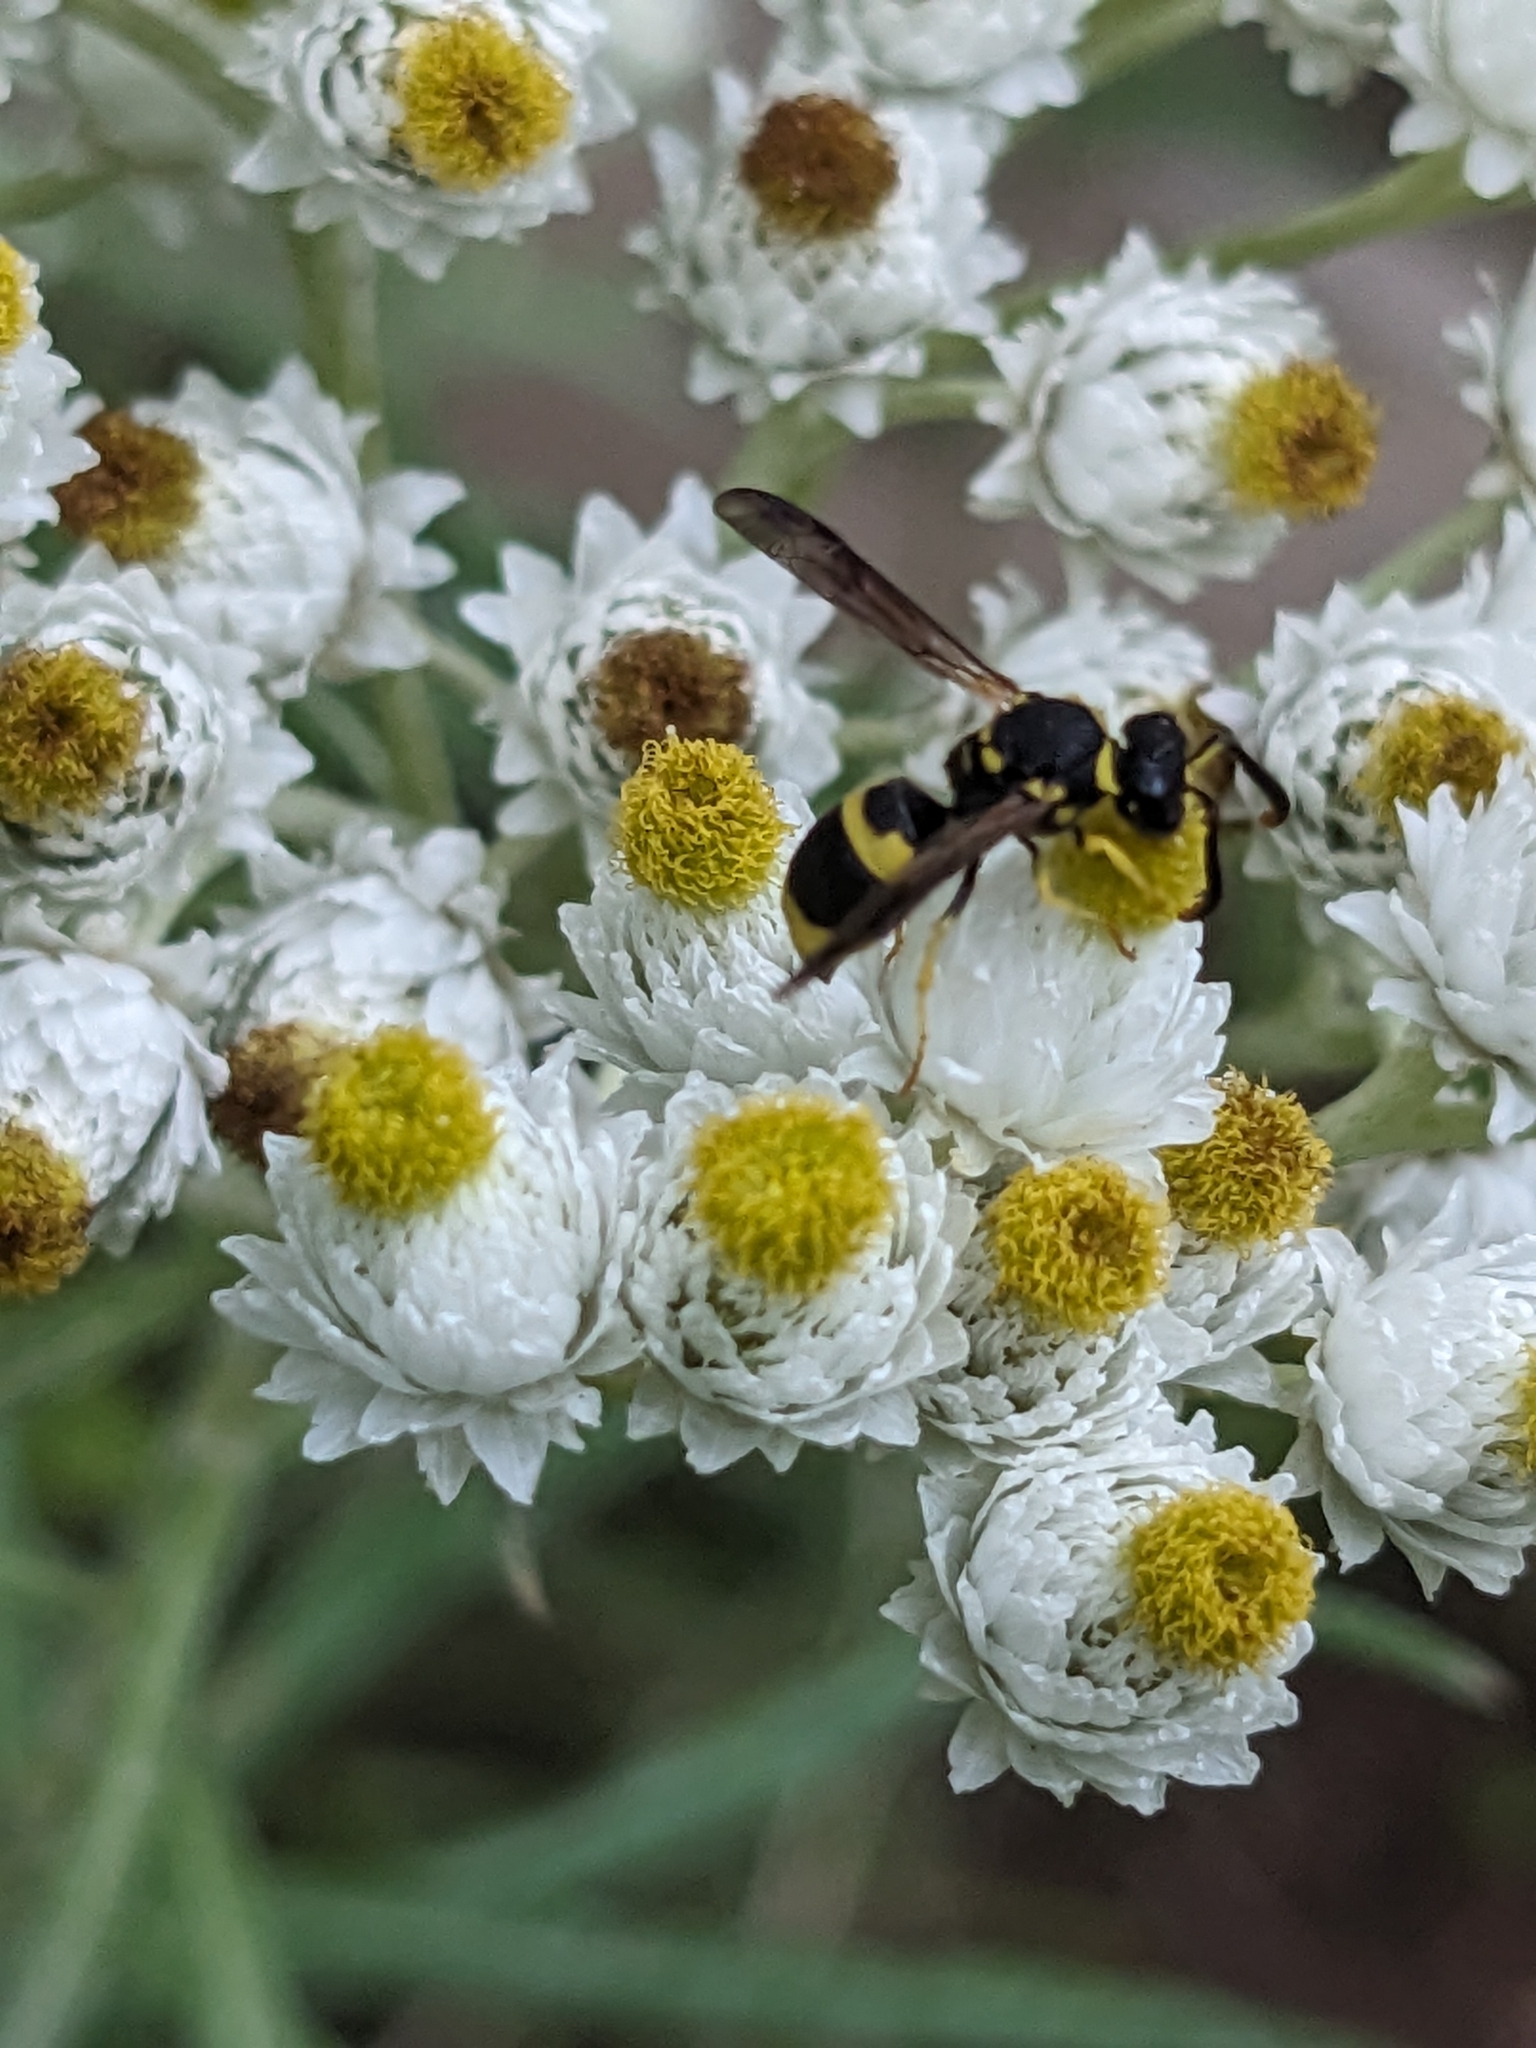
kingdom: Animalia
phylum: Arthropoda
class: Insecta
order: Hymenoptera
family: Vespidae
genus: Ancistrocerus
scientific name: Ancistrocerus gazella
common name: European tube wasp
